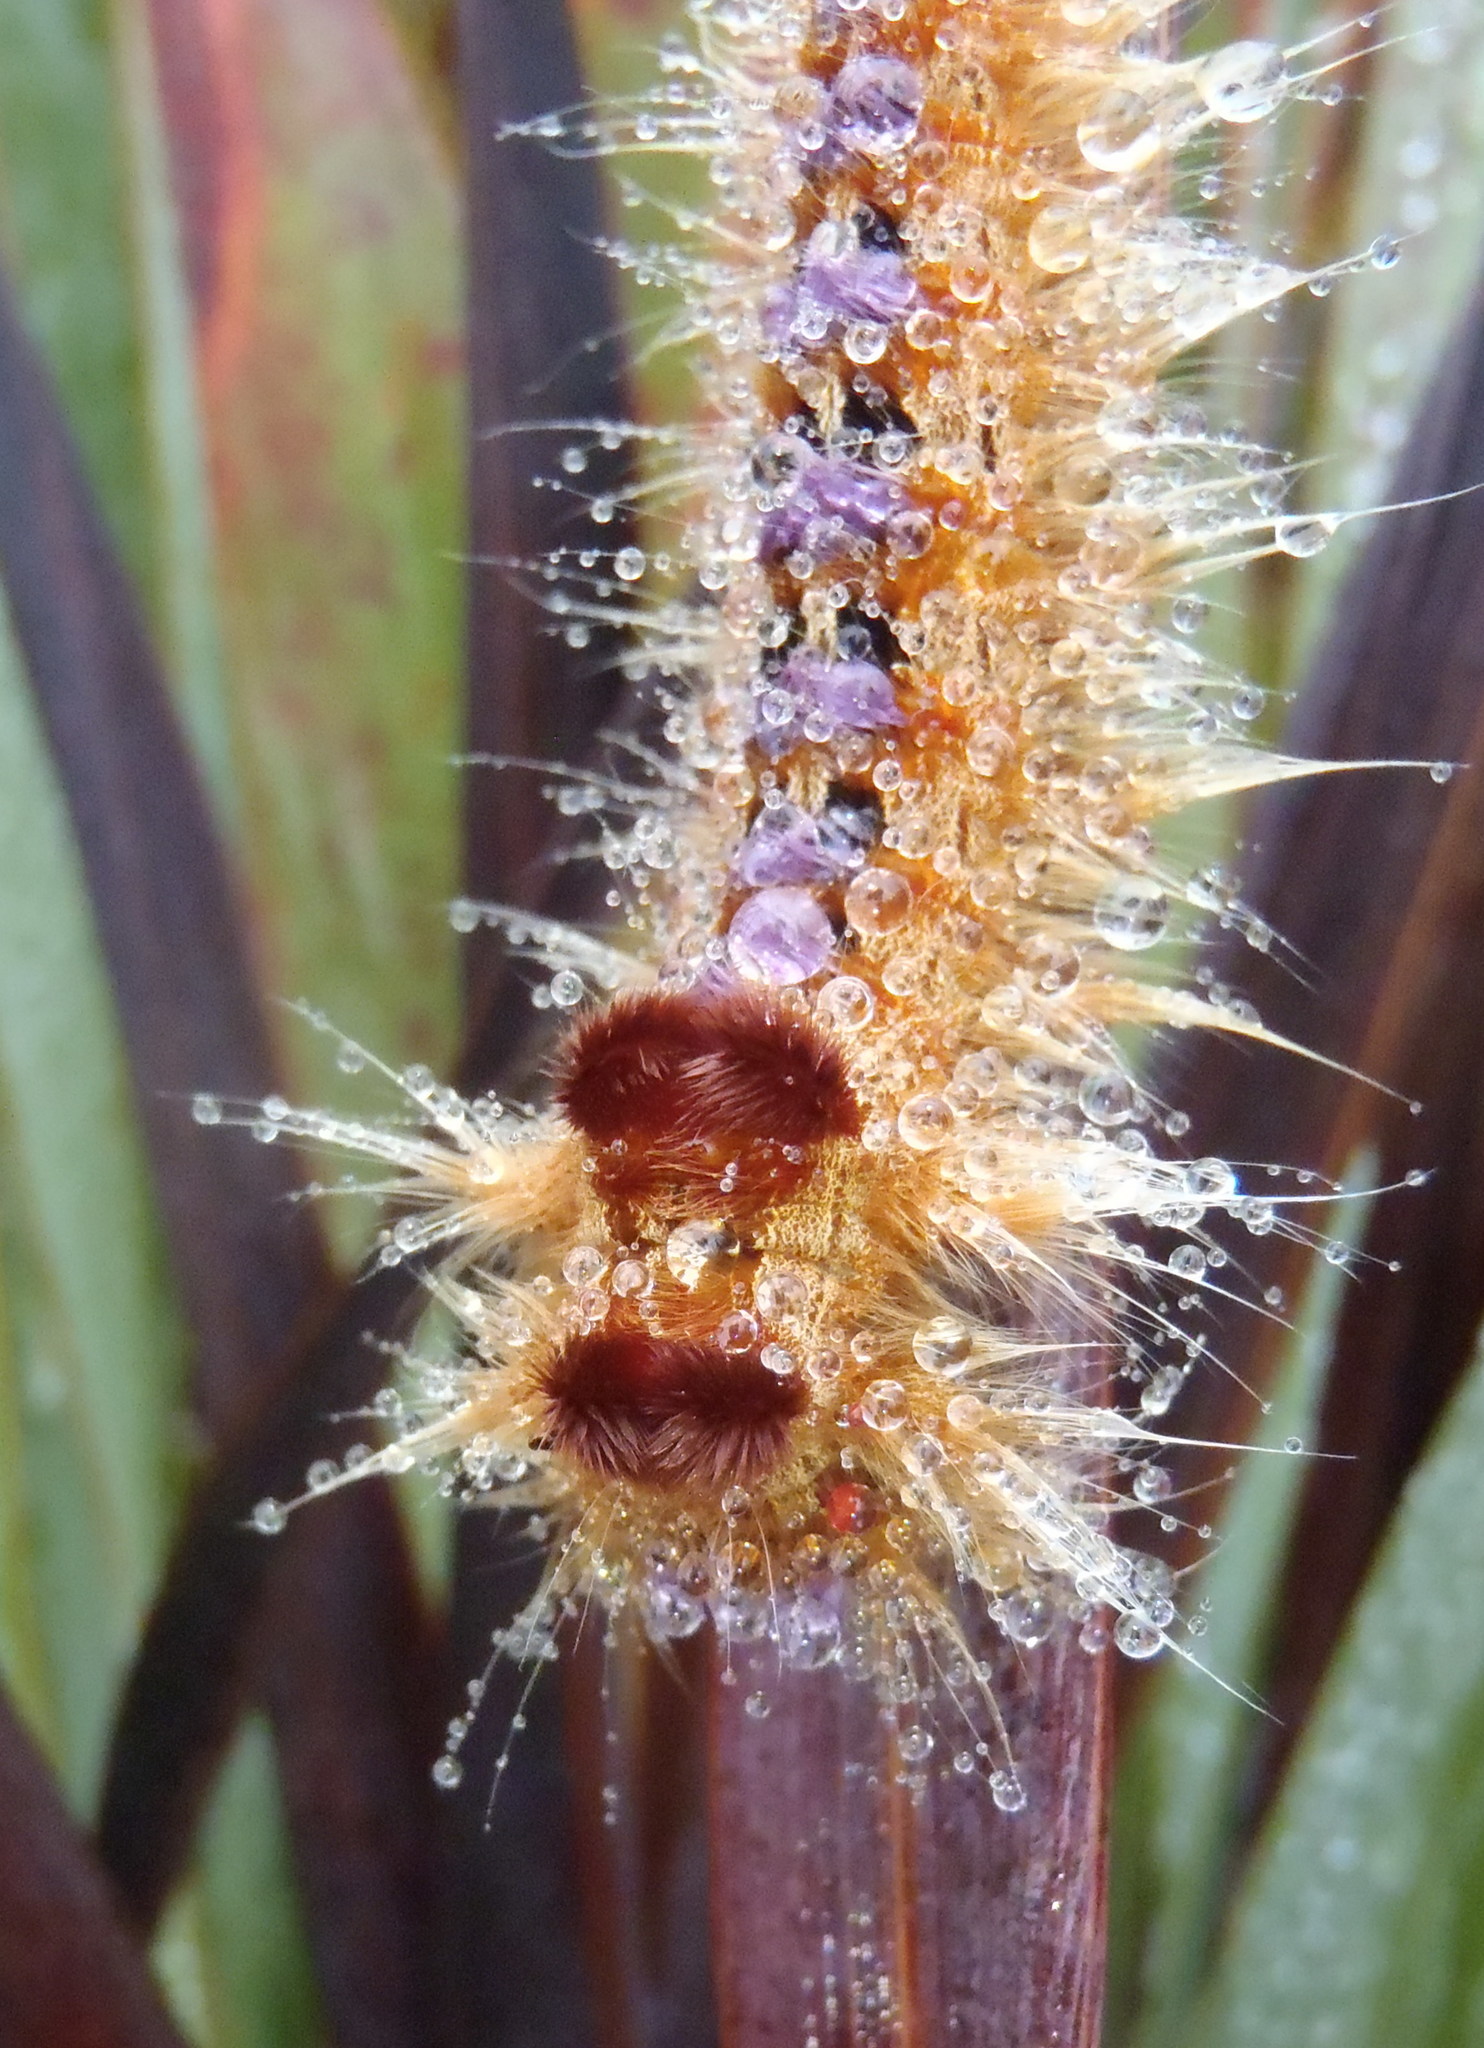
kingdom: Animalia
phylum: Arthropoda
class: Insecta
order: Lepidoptera
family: Lasiocampidae
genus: Eutricha
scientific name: Eutricha bifascia
